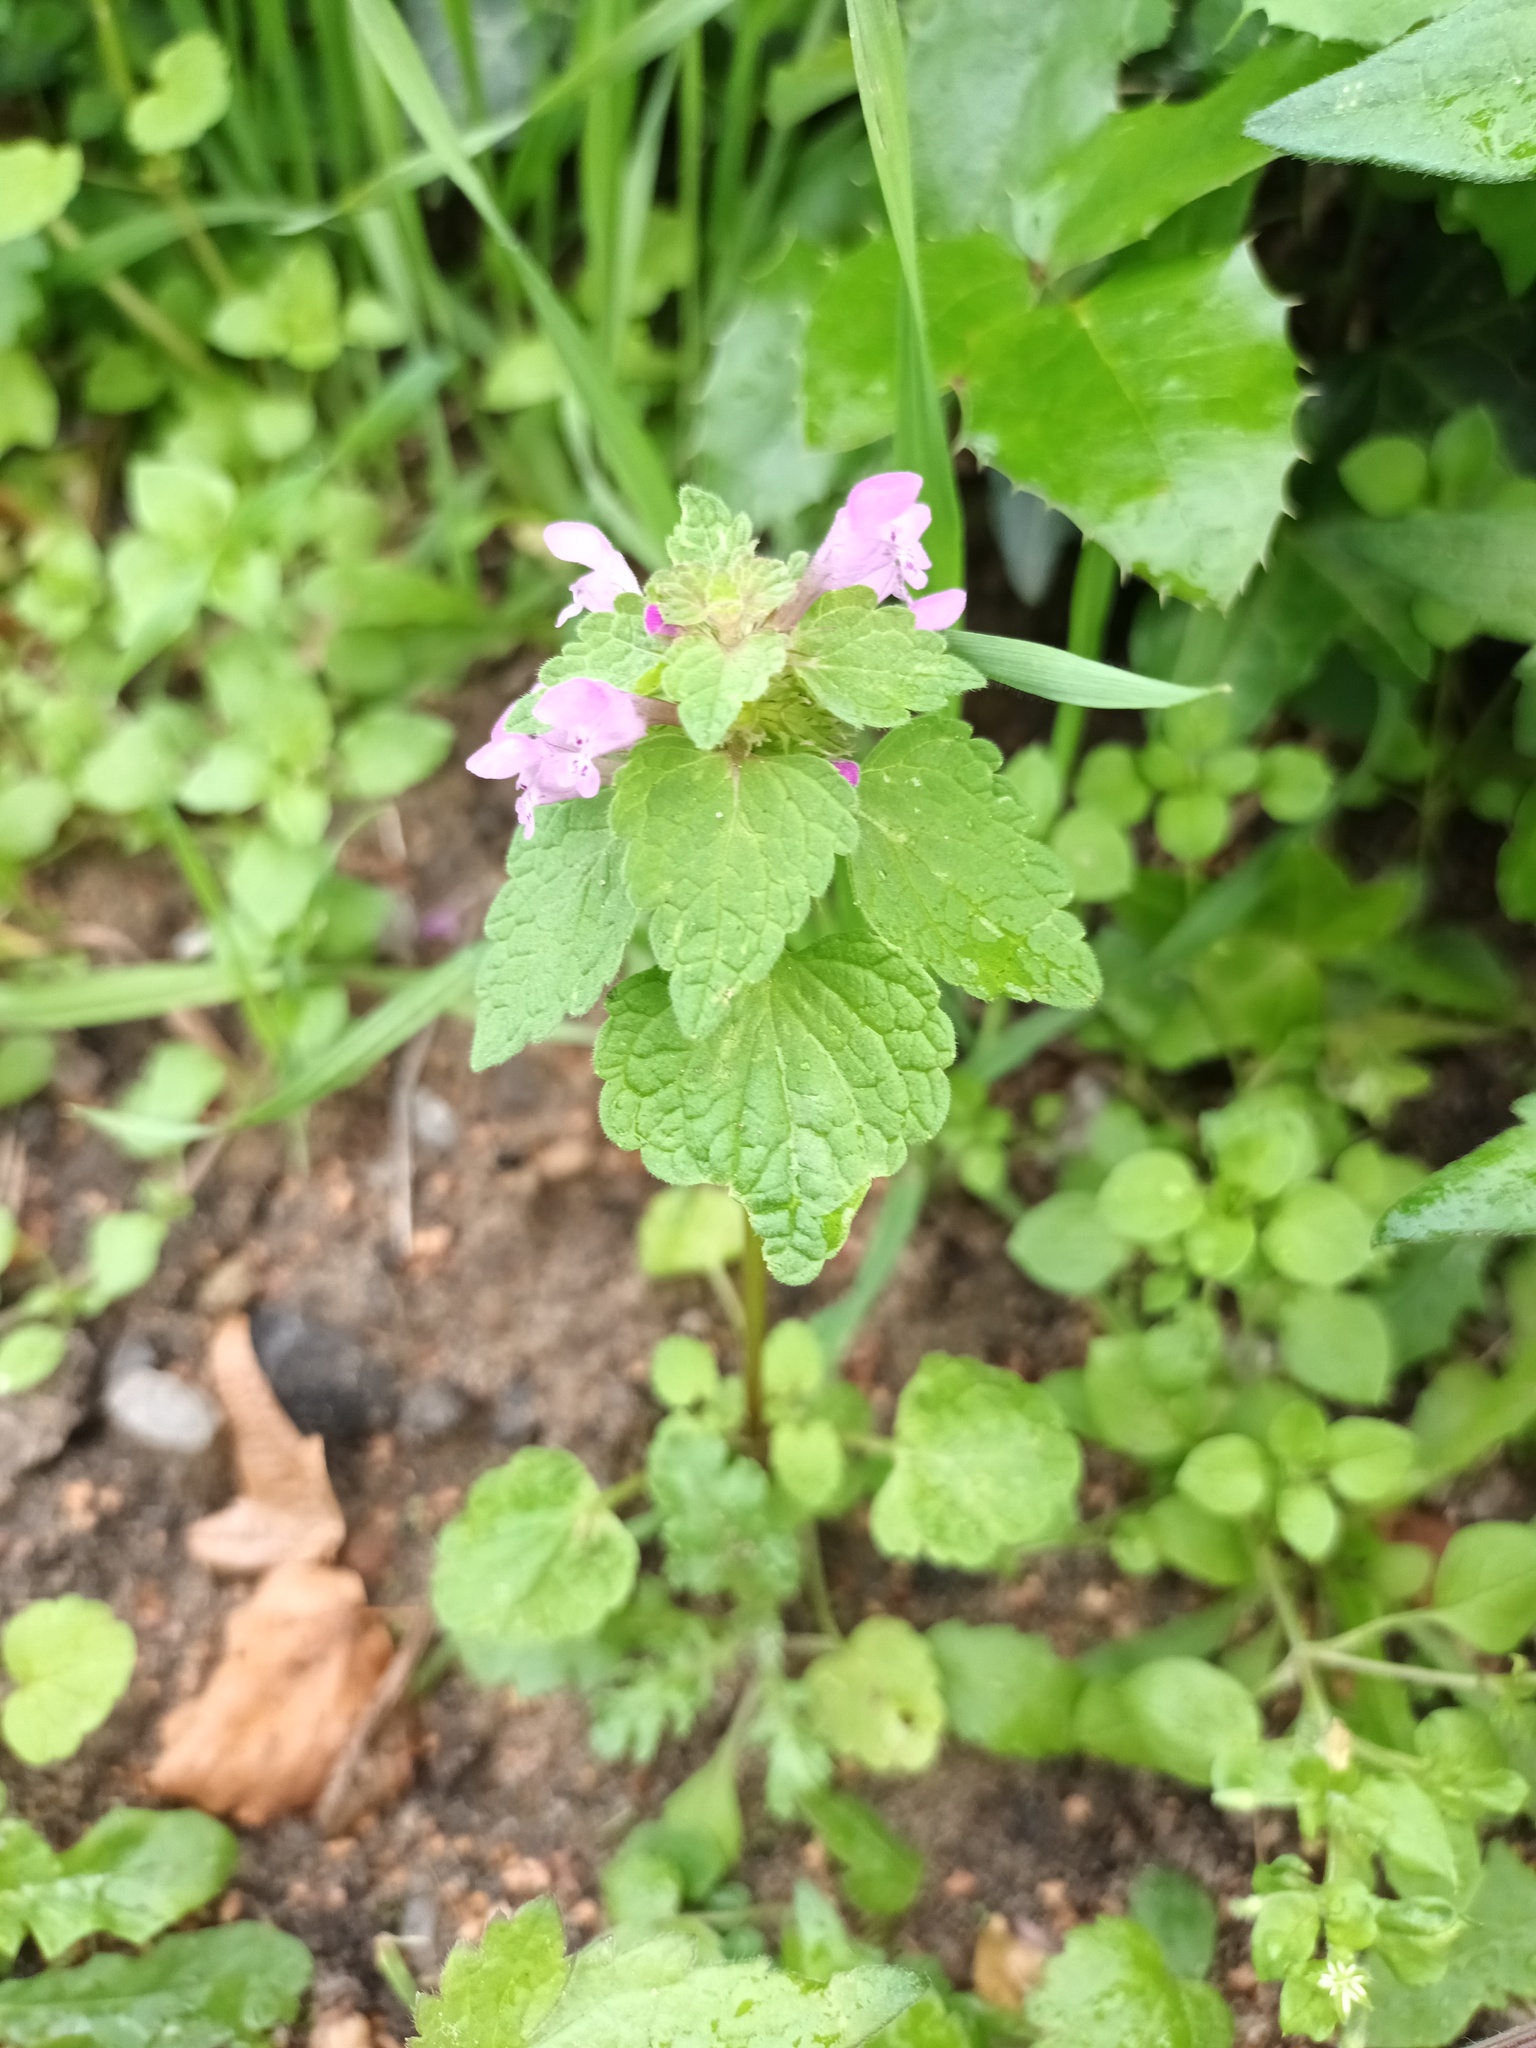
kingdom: Plantae
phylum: Tracheophyta
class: Magnoliopsida
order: Lamiales
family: Lamiaceae
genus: Lamium
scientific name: Lamium purpureum
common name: Red dead-nettle
